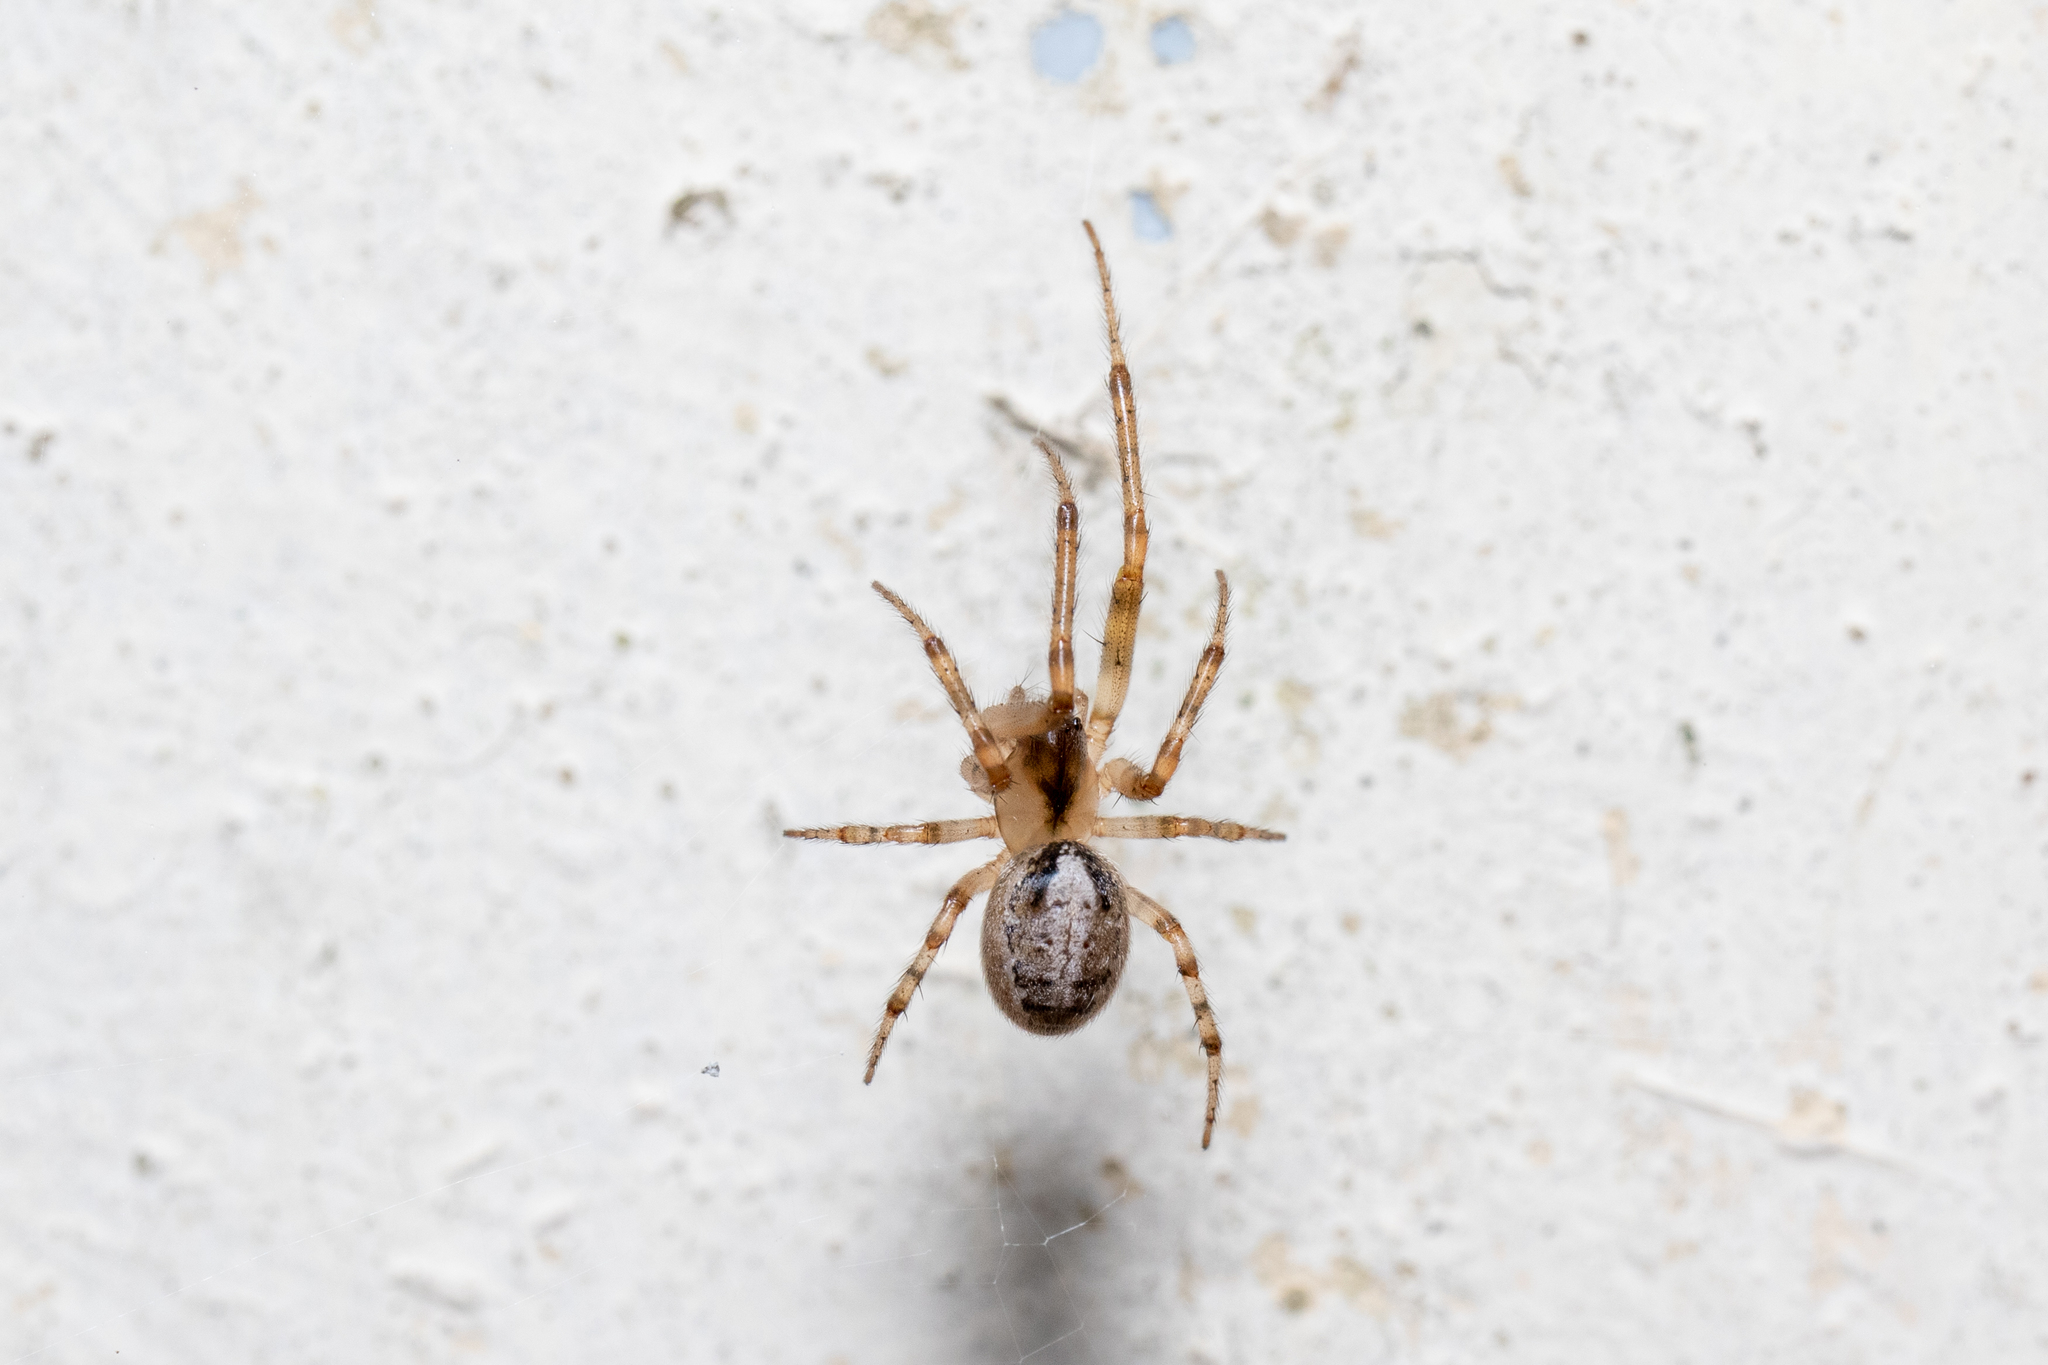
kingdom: Animalia
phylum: Arthropoda
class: Arachnida
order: Araneae
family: Araneidae
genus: Zygiella
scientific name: Zygiella x-notata
